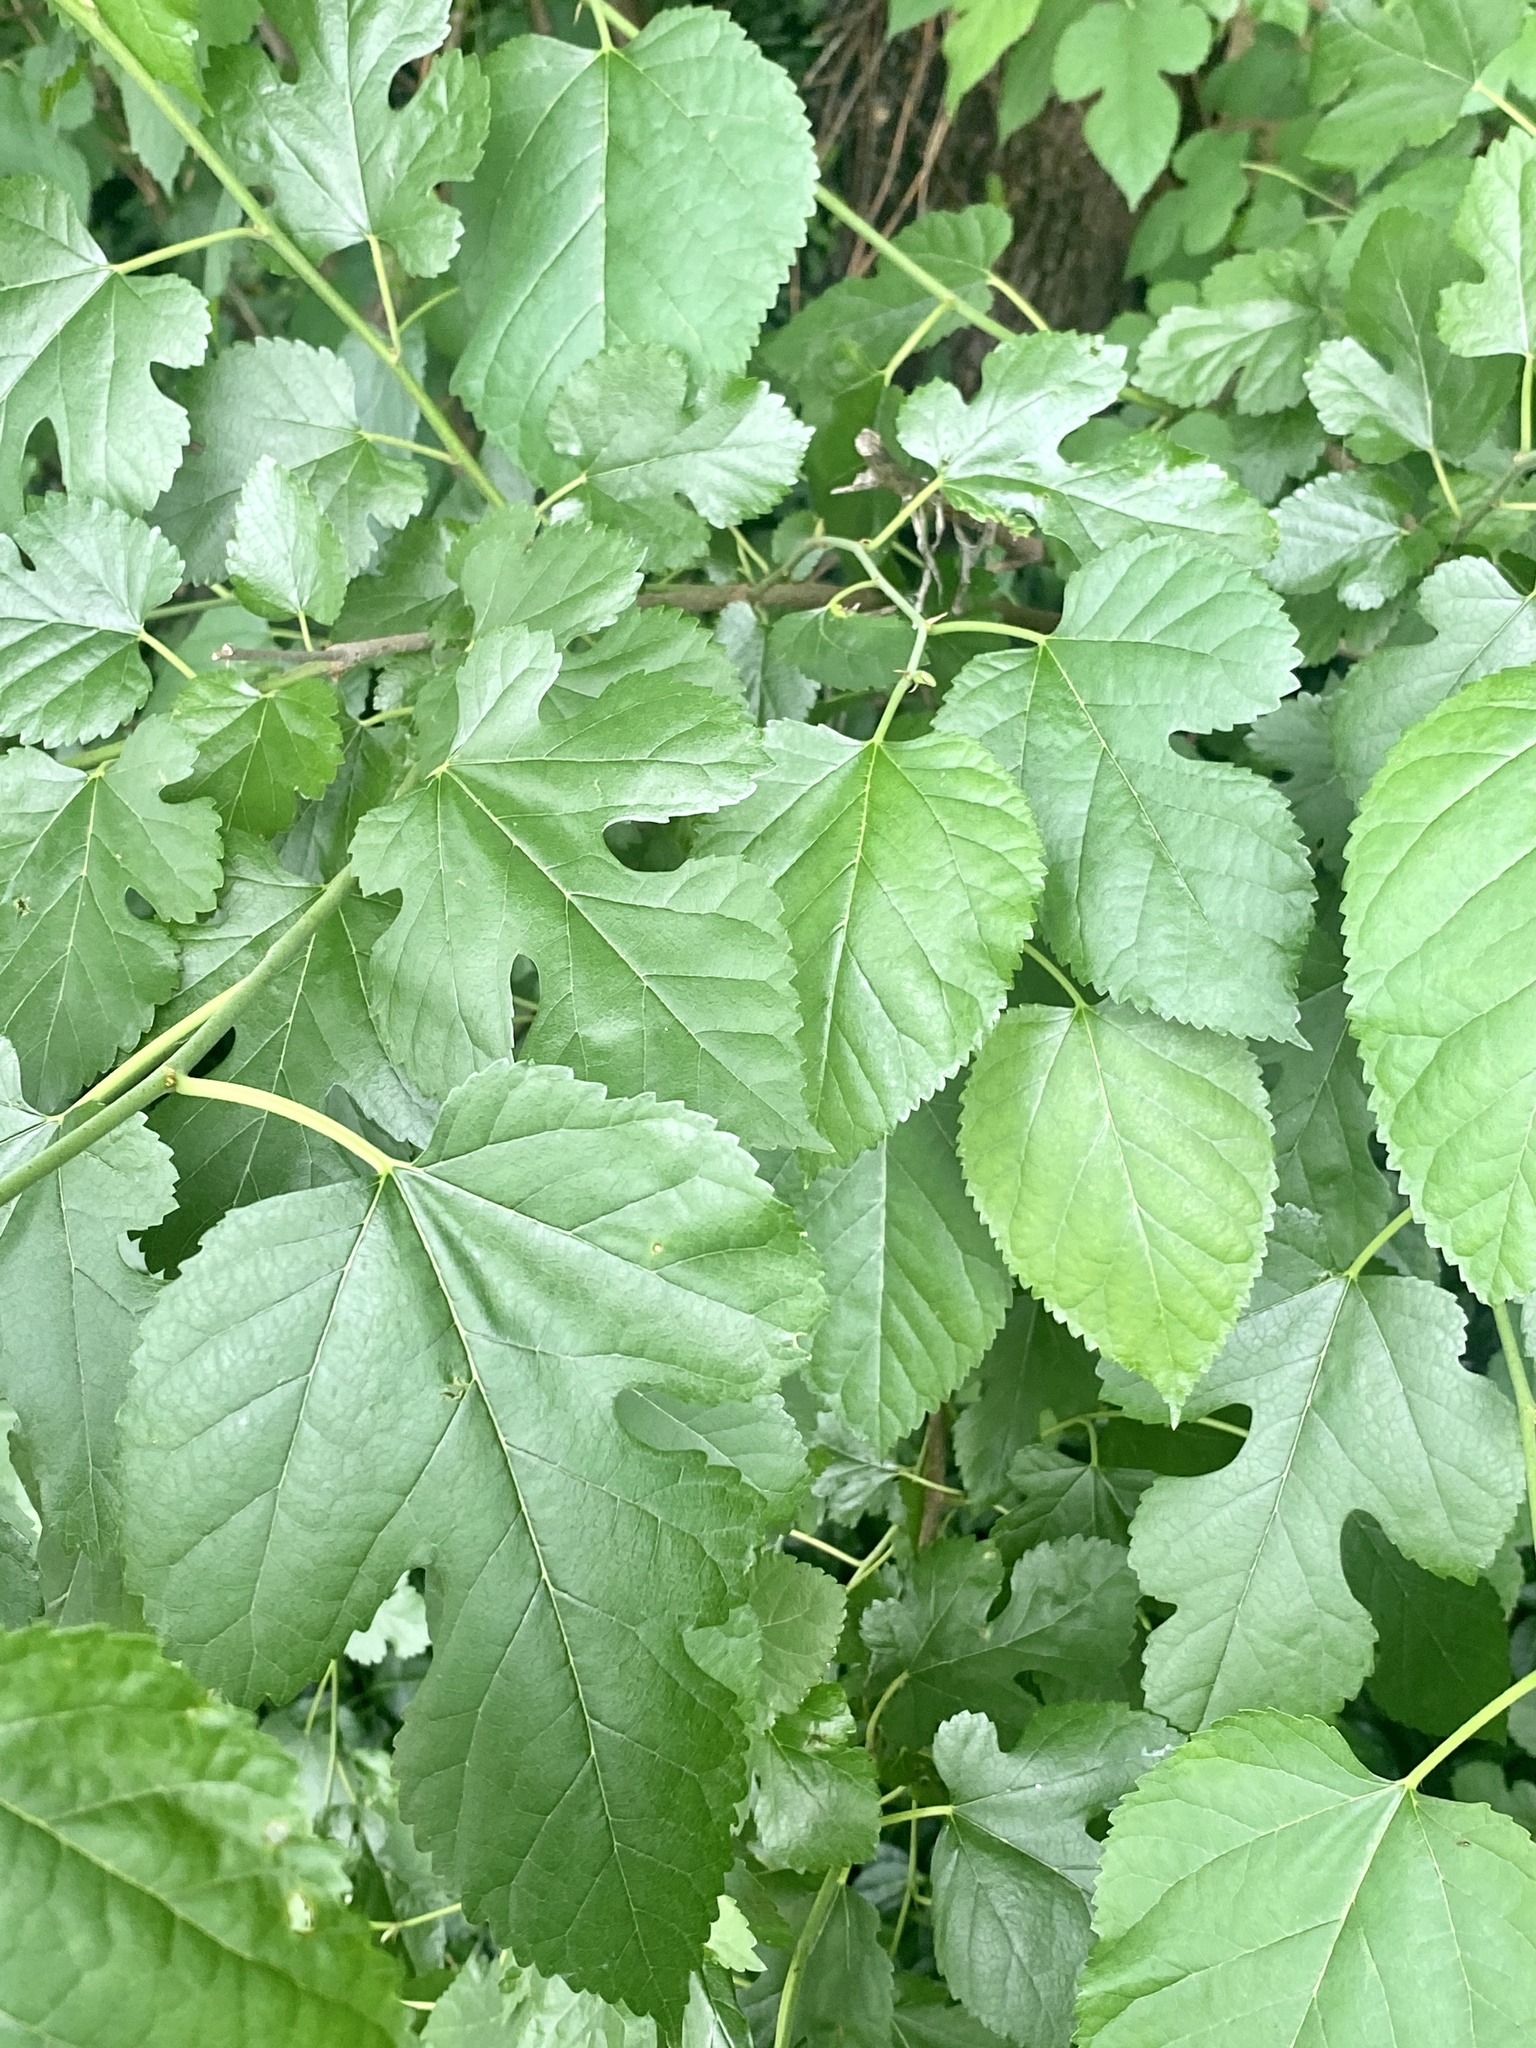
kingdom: Plantae
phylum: Tracheophyta
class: Magnoliopsida
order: Rosales
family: Moraceae
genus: Morus
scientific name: Morus alba
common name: White mulberry
